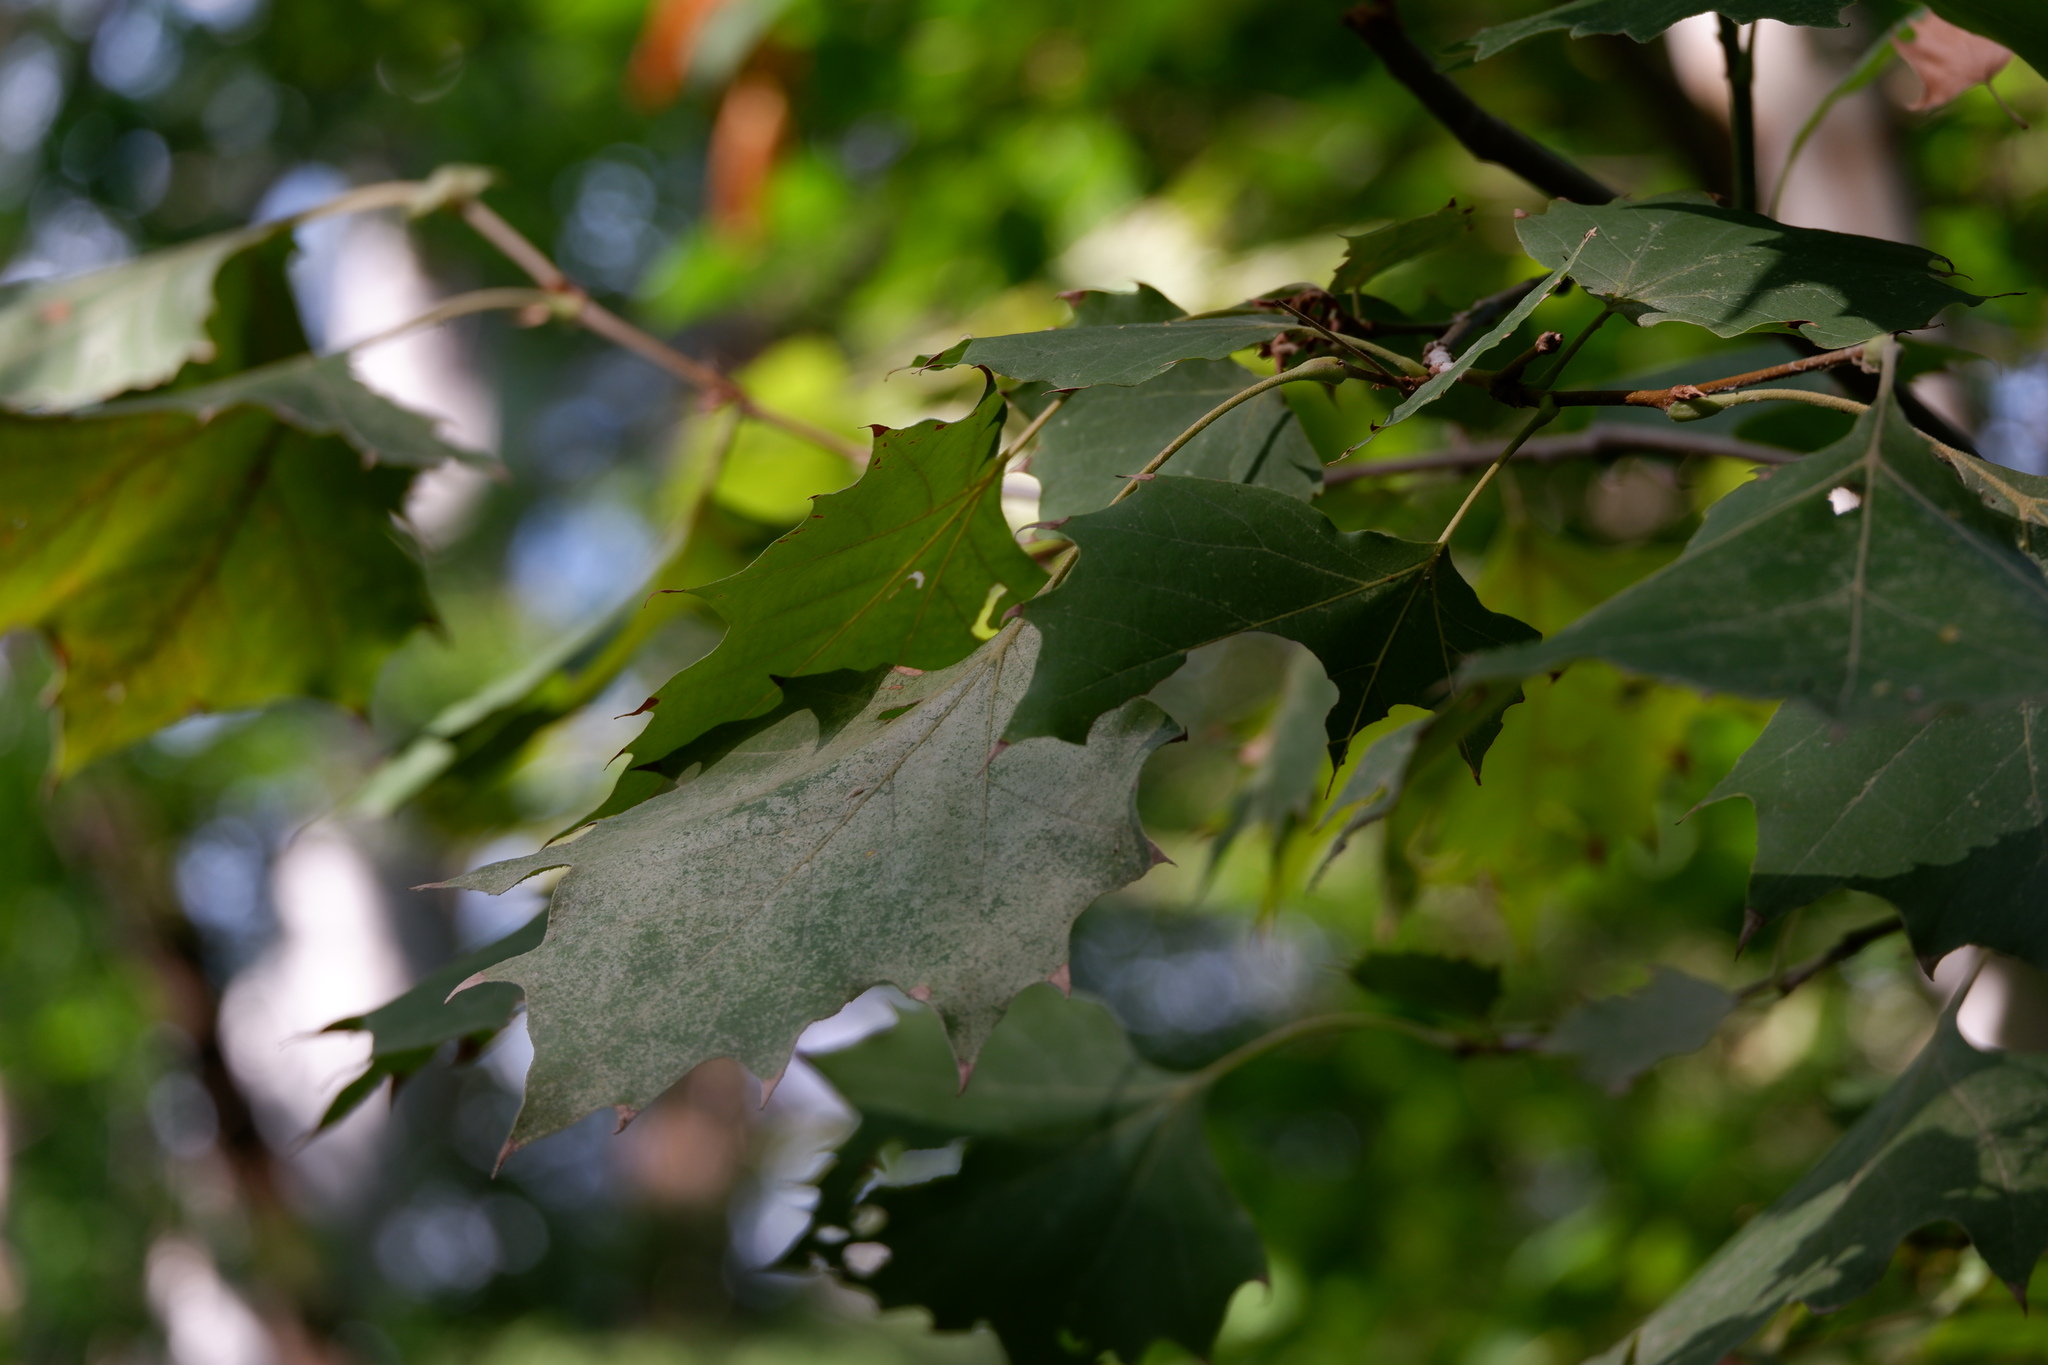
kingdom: Plantae
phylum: Tracheophyta
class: Magnoliopsida
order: Proteales
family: Platanaceae
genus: Platanus
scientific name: Platanus occidentalis
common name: American sycamore
